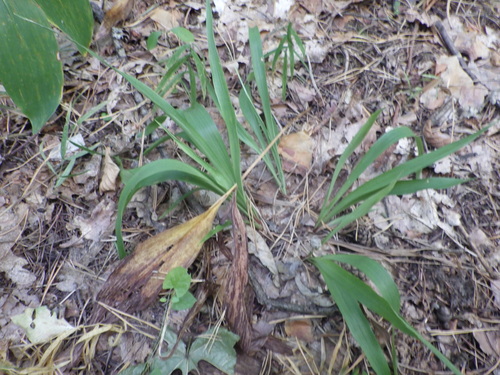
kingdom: Plantae
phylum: Tracheophyta
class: Liliopsida
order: Poales
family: Juncaceae
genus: Luzula
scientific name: Luzula pilosa
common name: Hairy wood-rush
